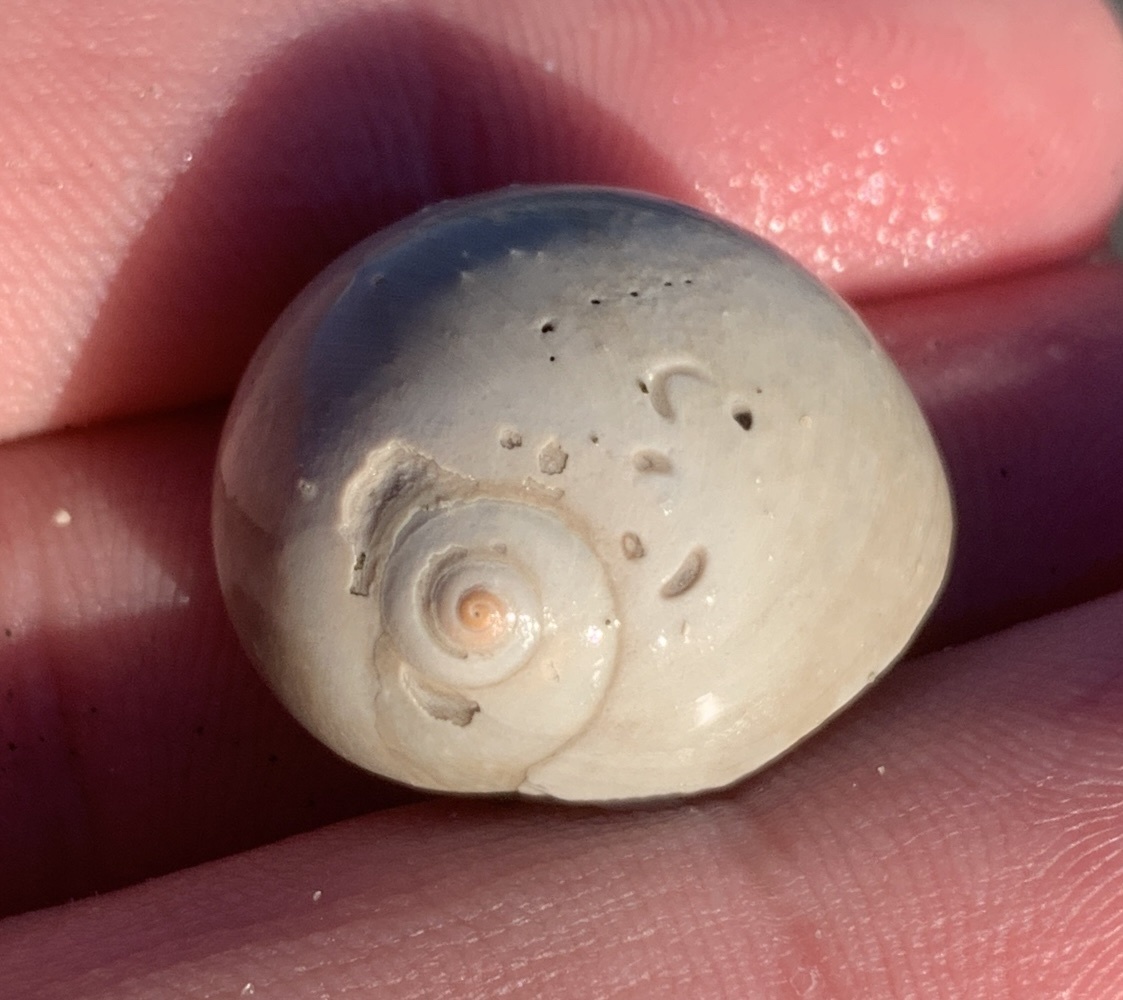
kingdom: Animalia
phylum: Mollusca
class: Gastropoda
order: Littorinimorpha
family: Naticidae
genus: Neverita
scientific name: Neverita duplicata
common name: Lobed moonsnail
